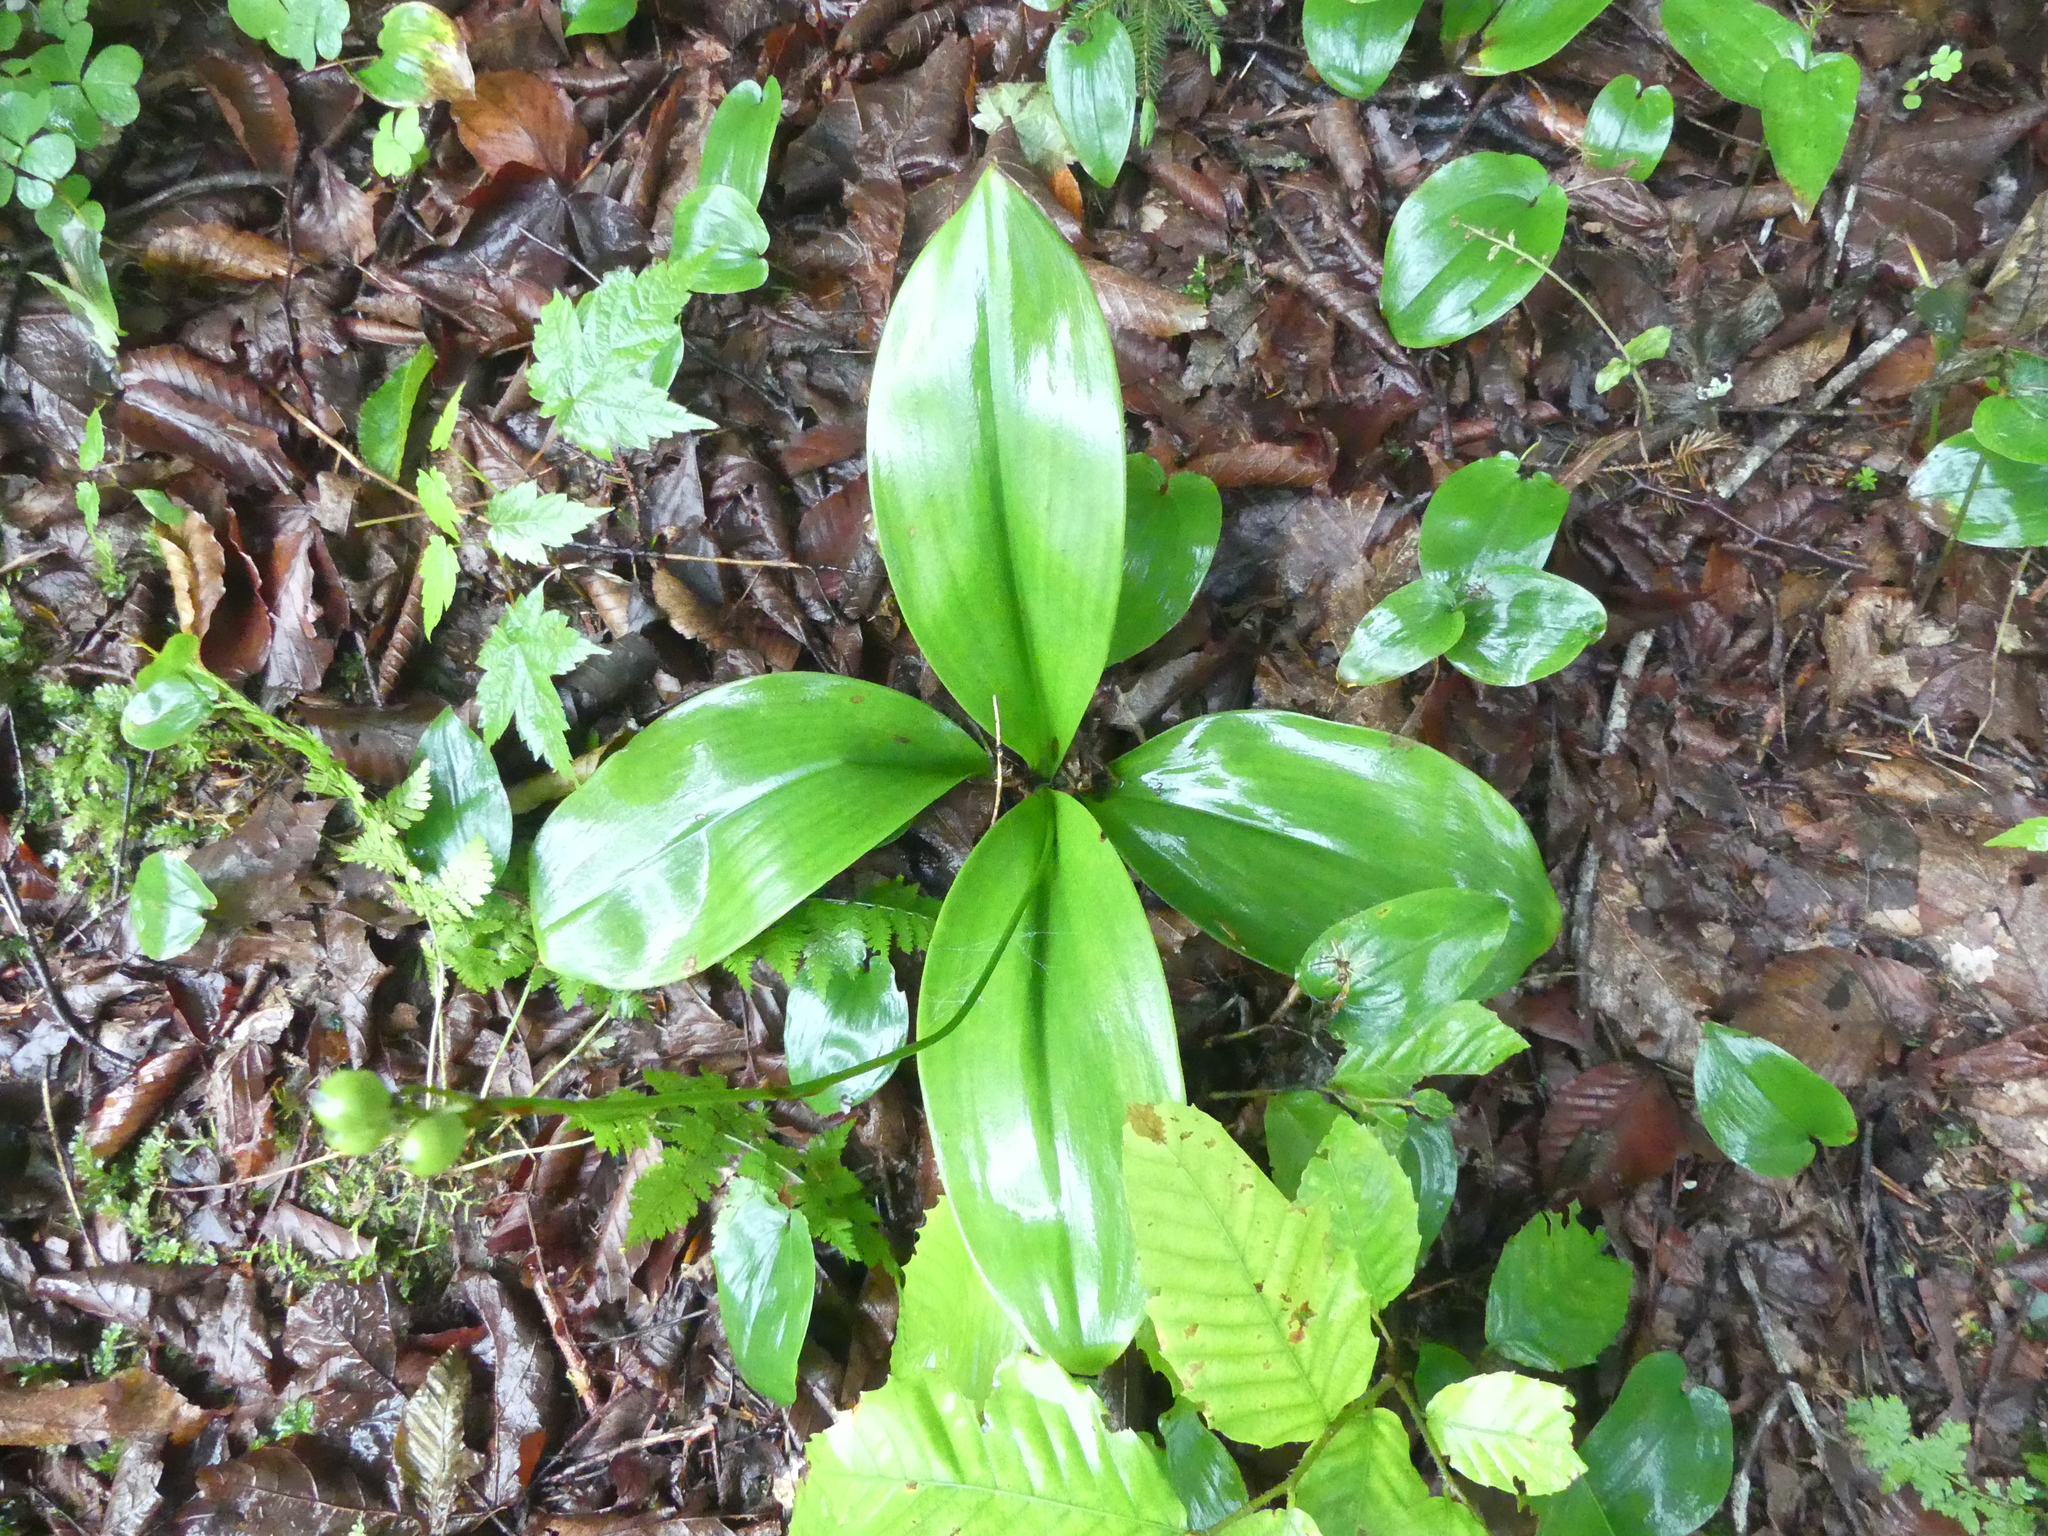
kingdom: Plantae
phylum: Tracheophyta
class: Liliopsida
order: Liliales
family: Liliaceae
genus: Clintonia
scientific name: Clintonia borealis
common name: Yellow clintonia
